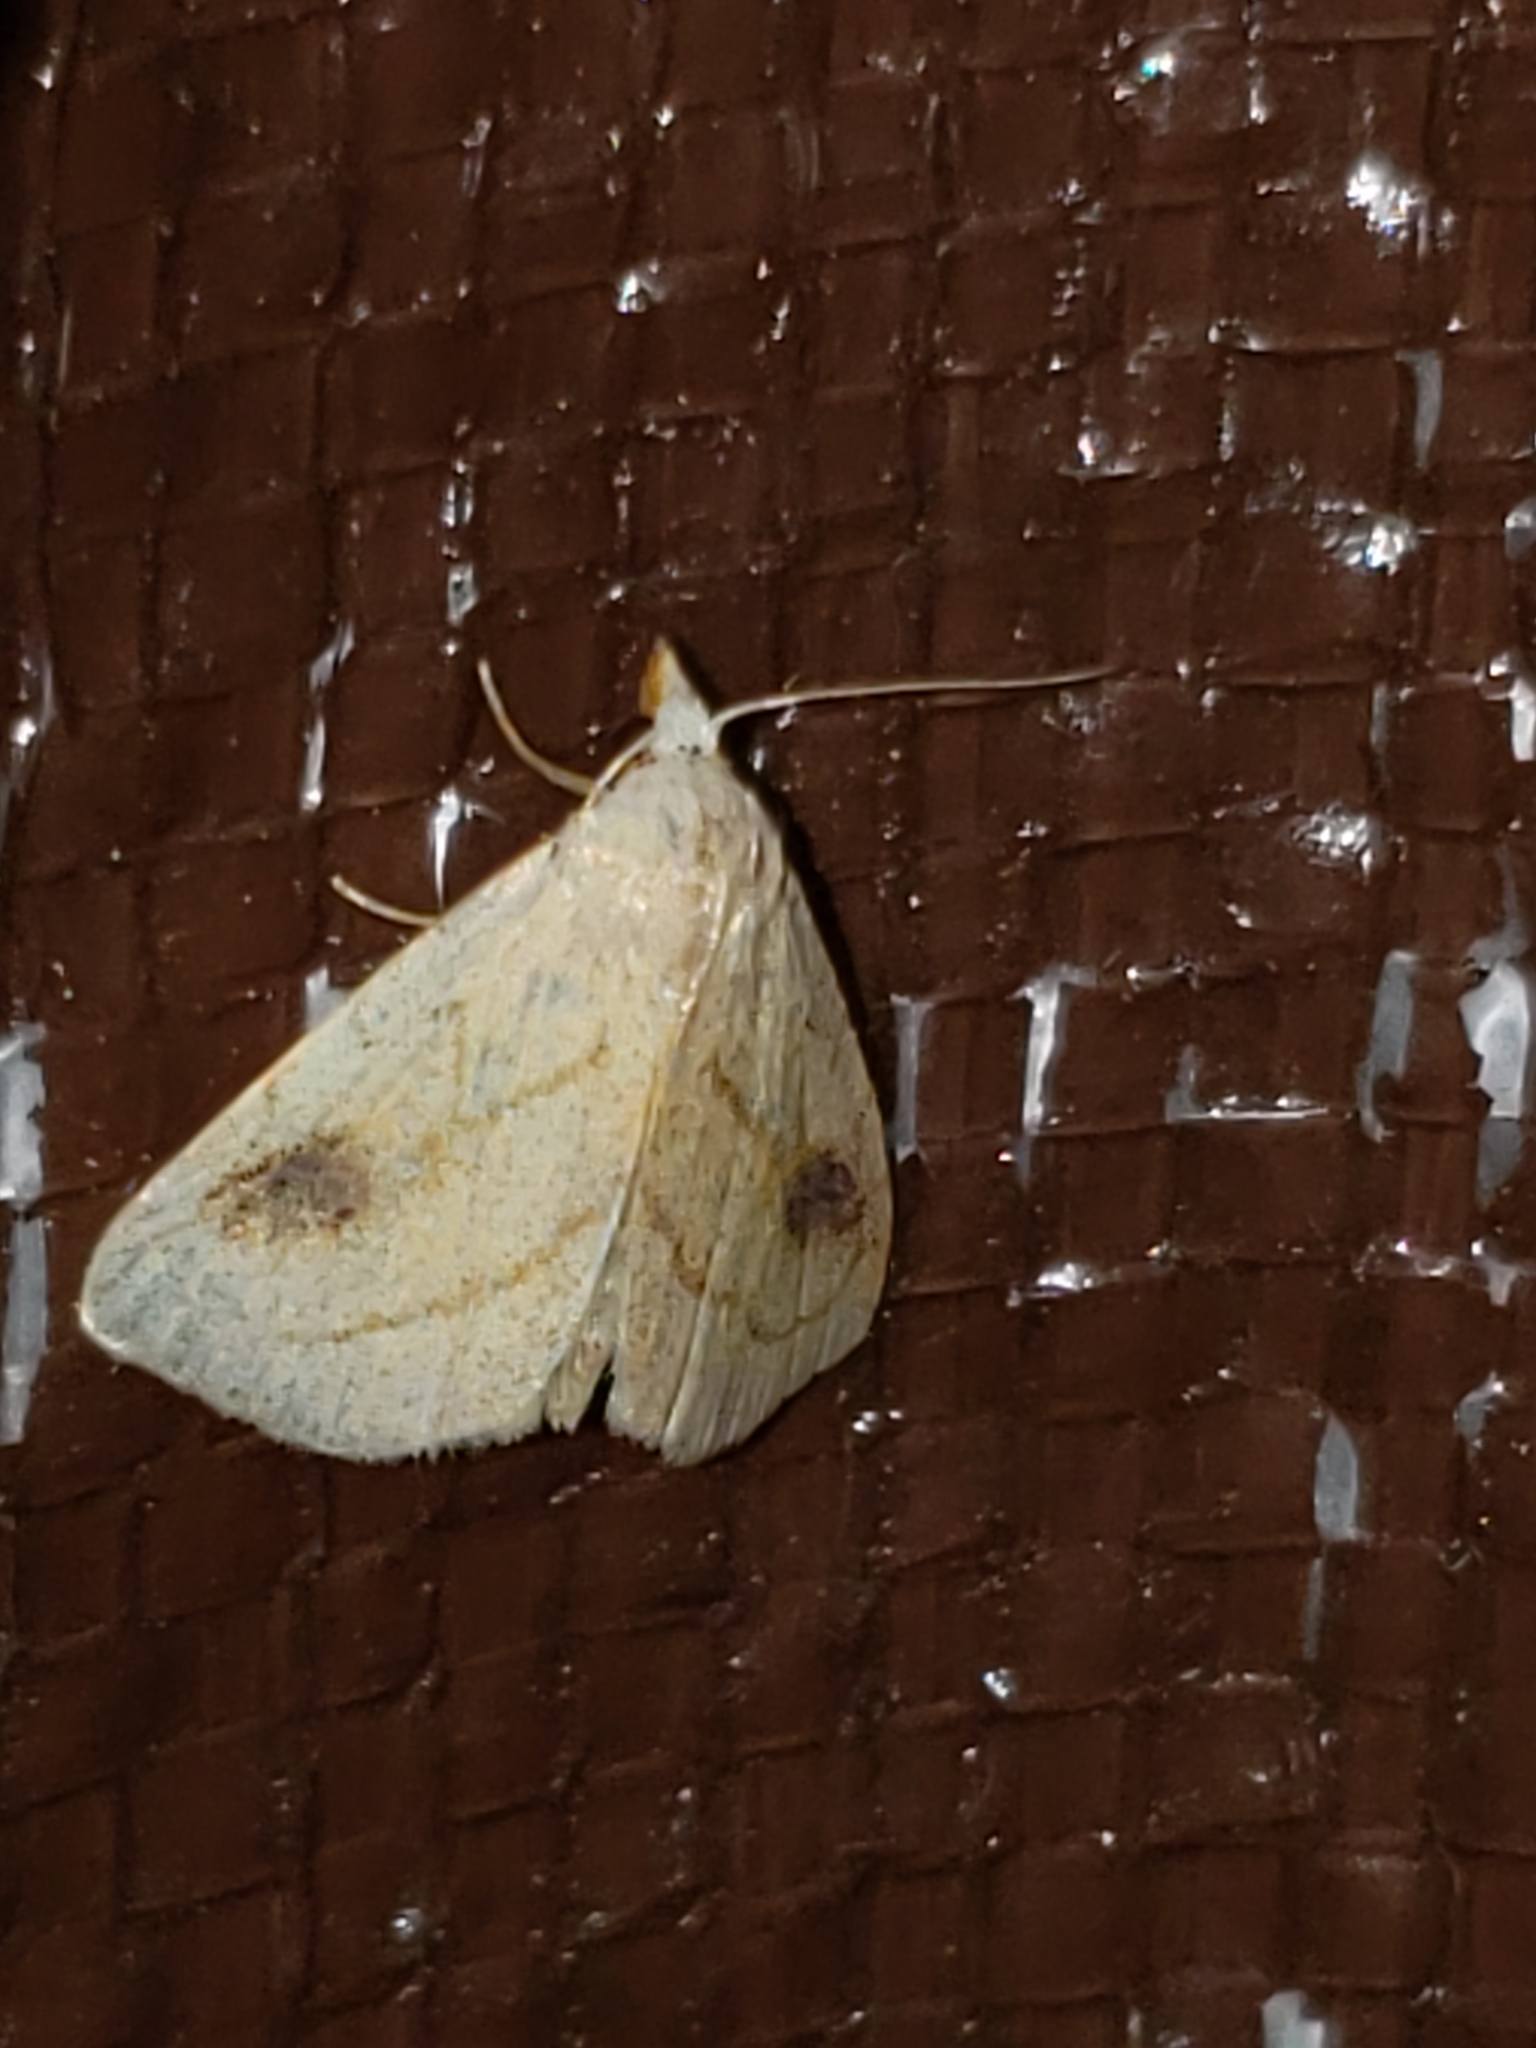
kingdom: Animalia
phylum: Arthropoda
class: Insecta
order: Lepidoptera
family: Erebidae
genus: Rivula
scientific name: Rivula propinqualis
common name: Spotted grass moth
